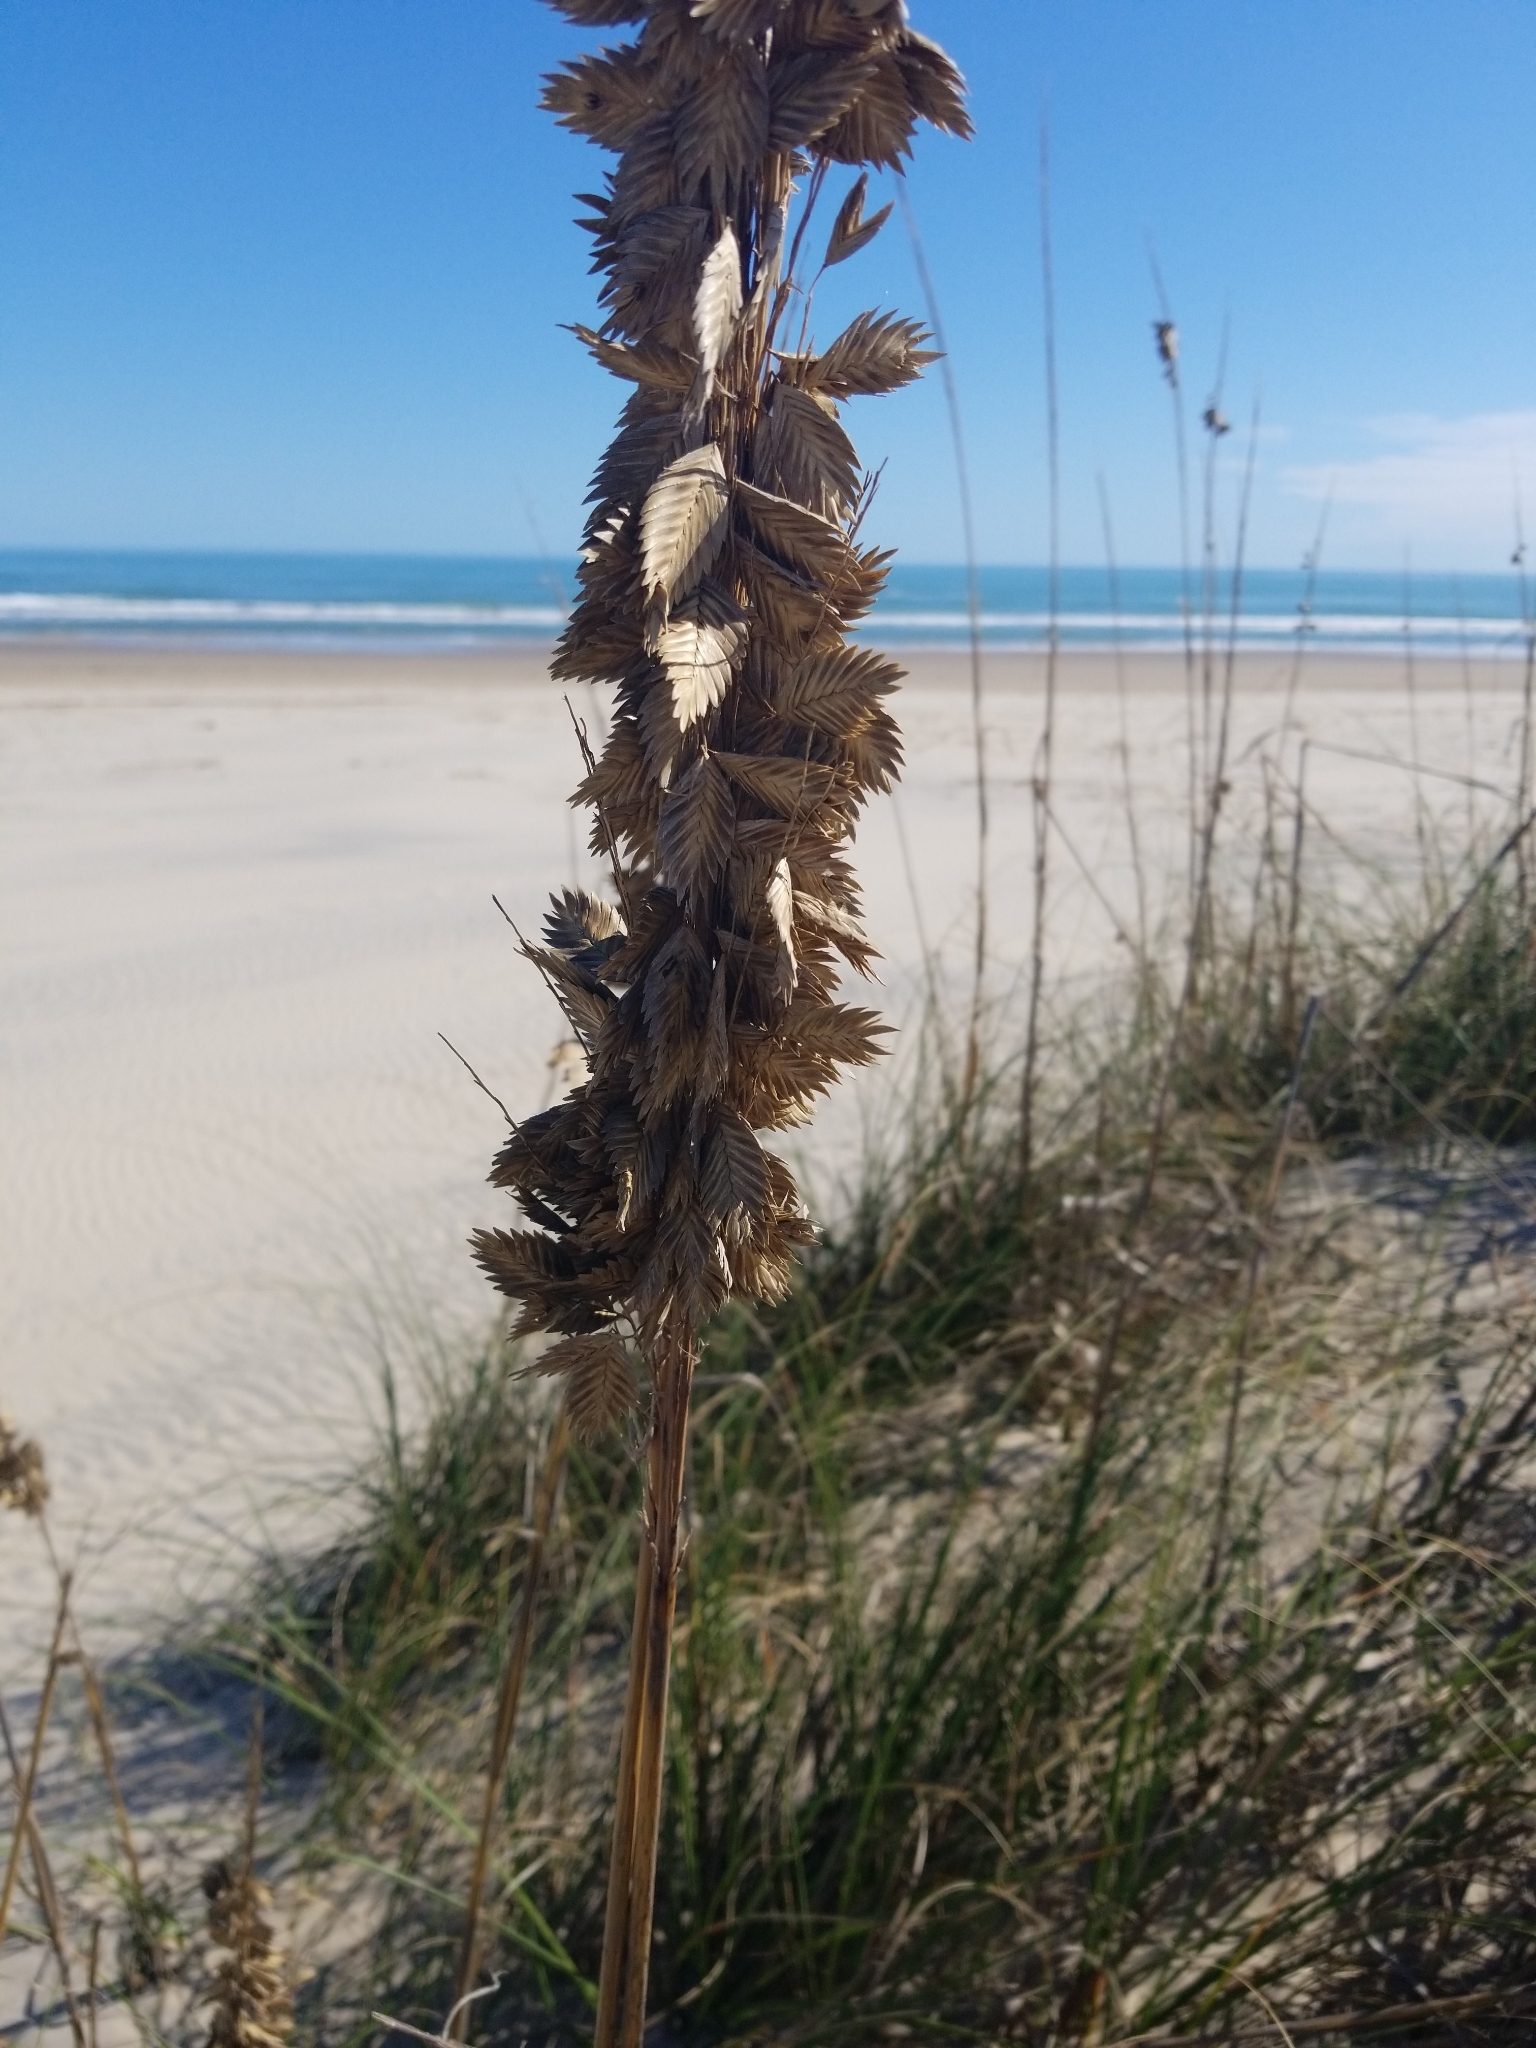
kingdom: Plantae
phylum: Tracheophyta
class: Liliopsida
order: Poales
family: Poaceae
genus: Uniola
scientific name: Uniola paniculata
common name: Seaside-oats
